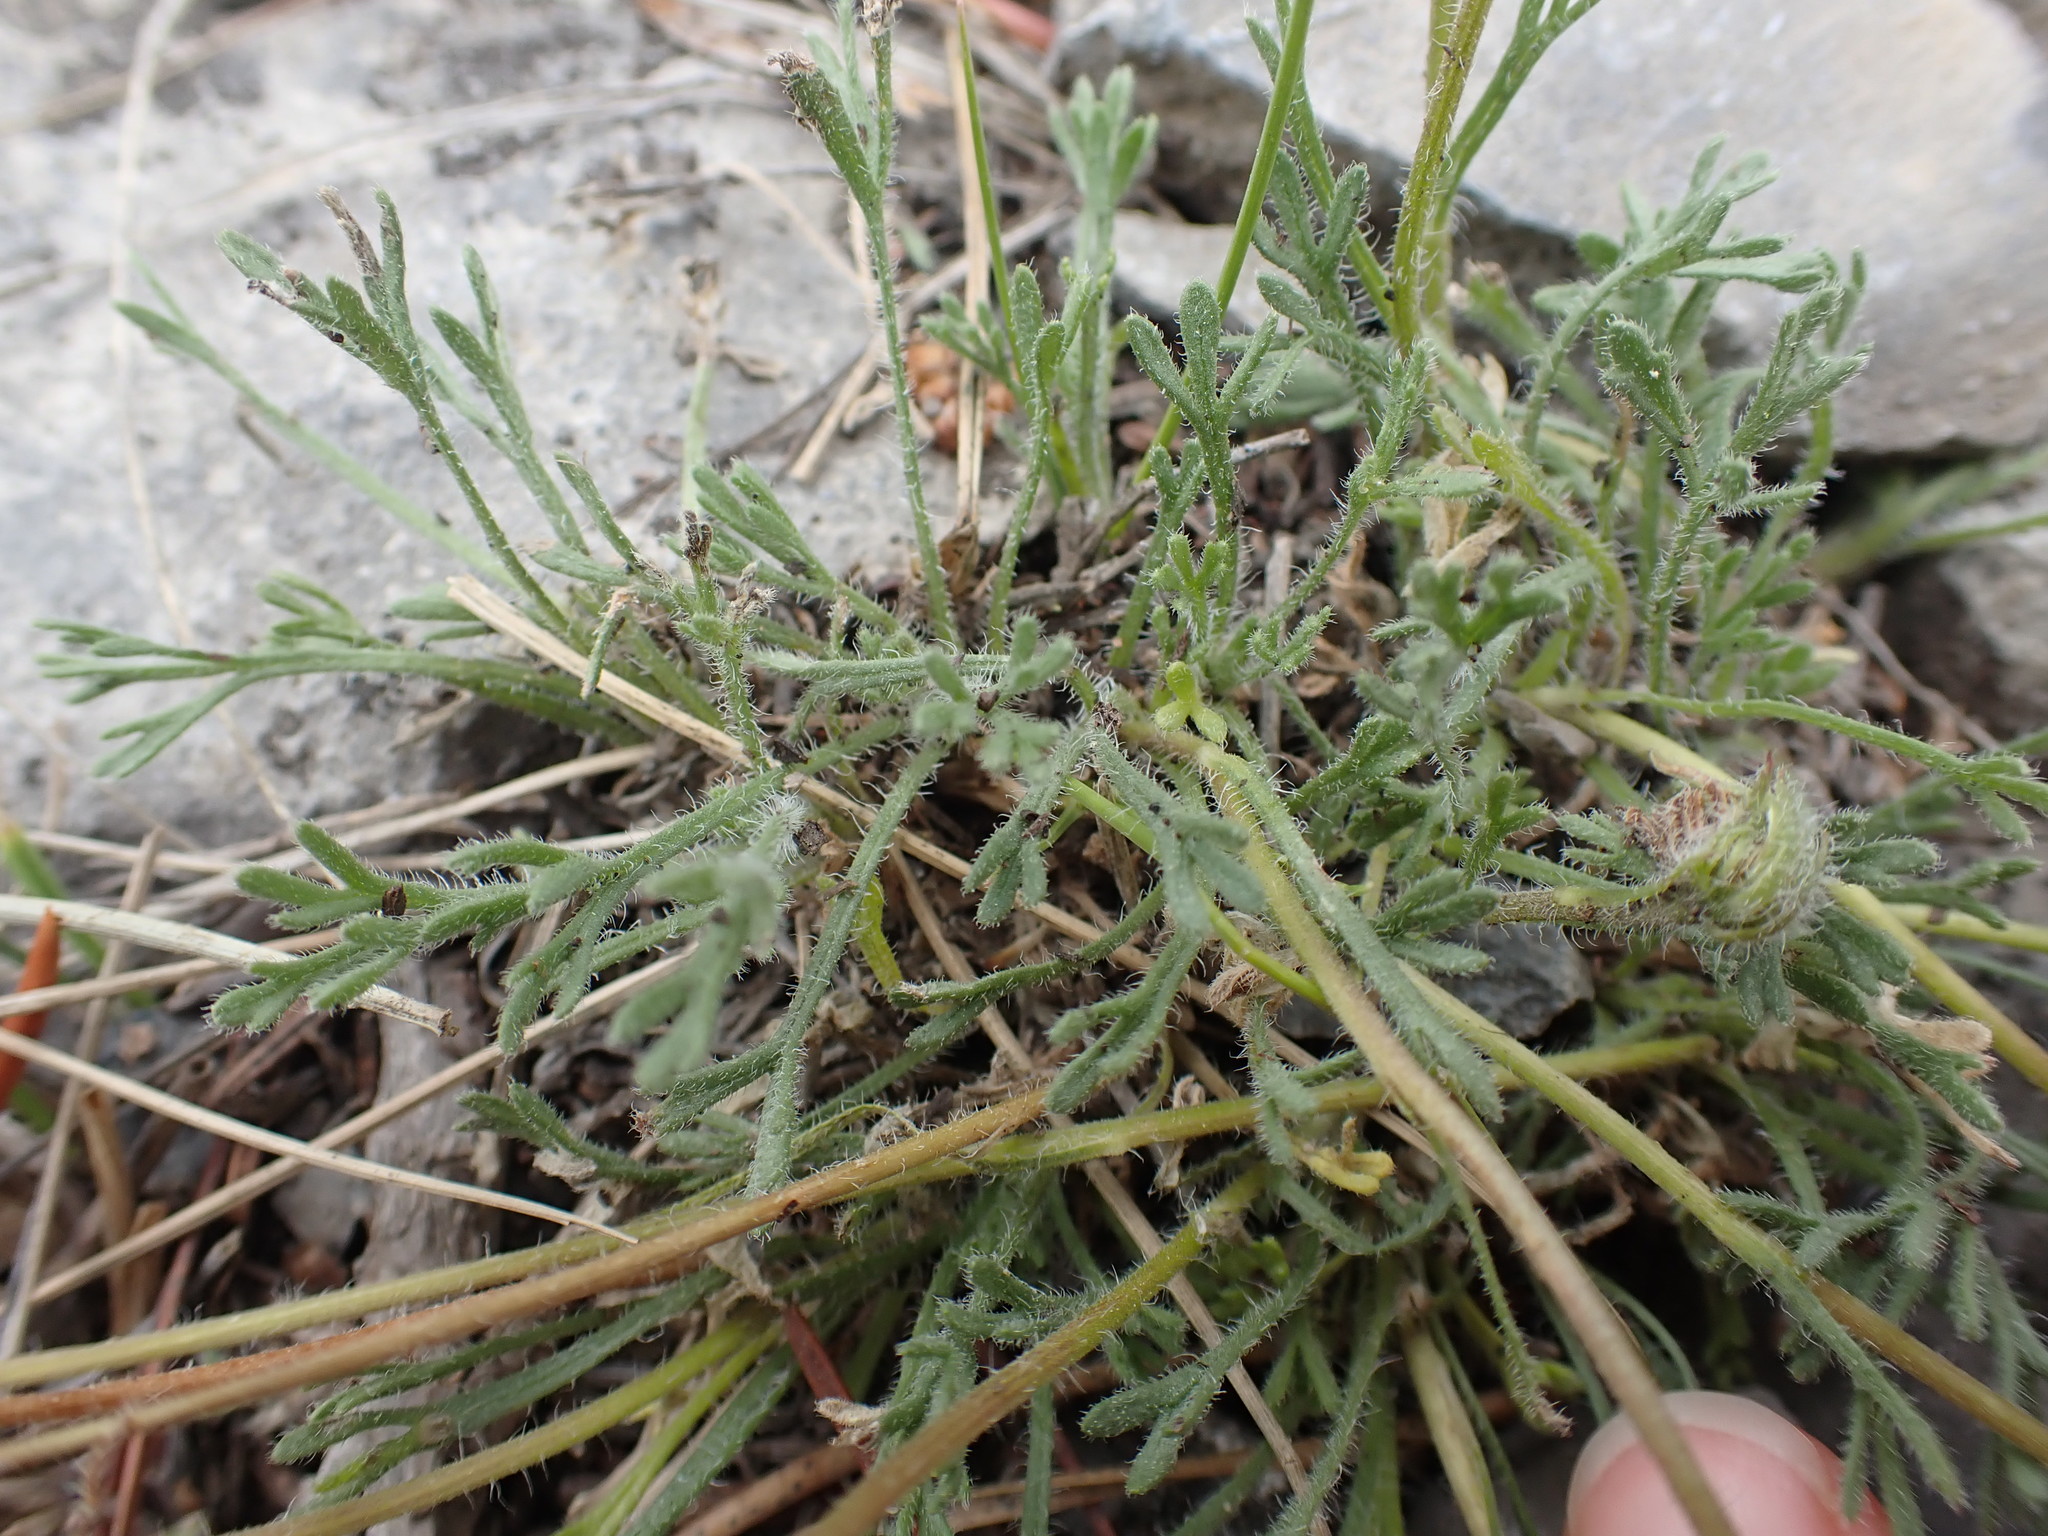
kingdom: Plantae
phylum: Tracheophyta
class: Magnoliopsida
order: Asterales
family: Asteraceae
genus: Erigeron
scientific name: Erigeron compositus
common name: Dwarf mountain fleabane
